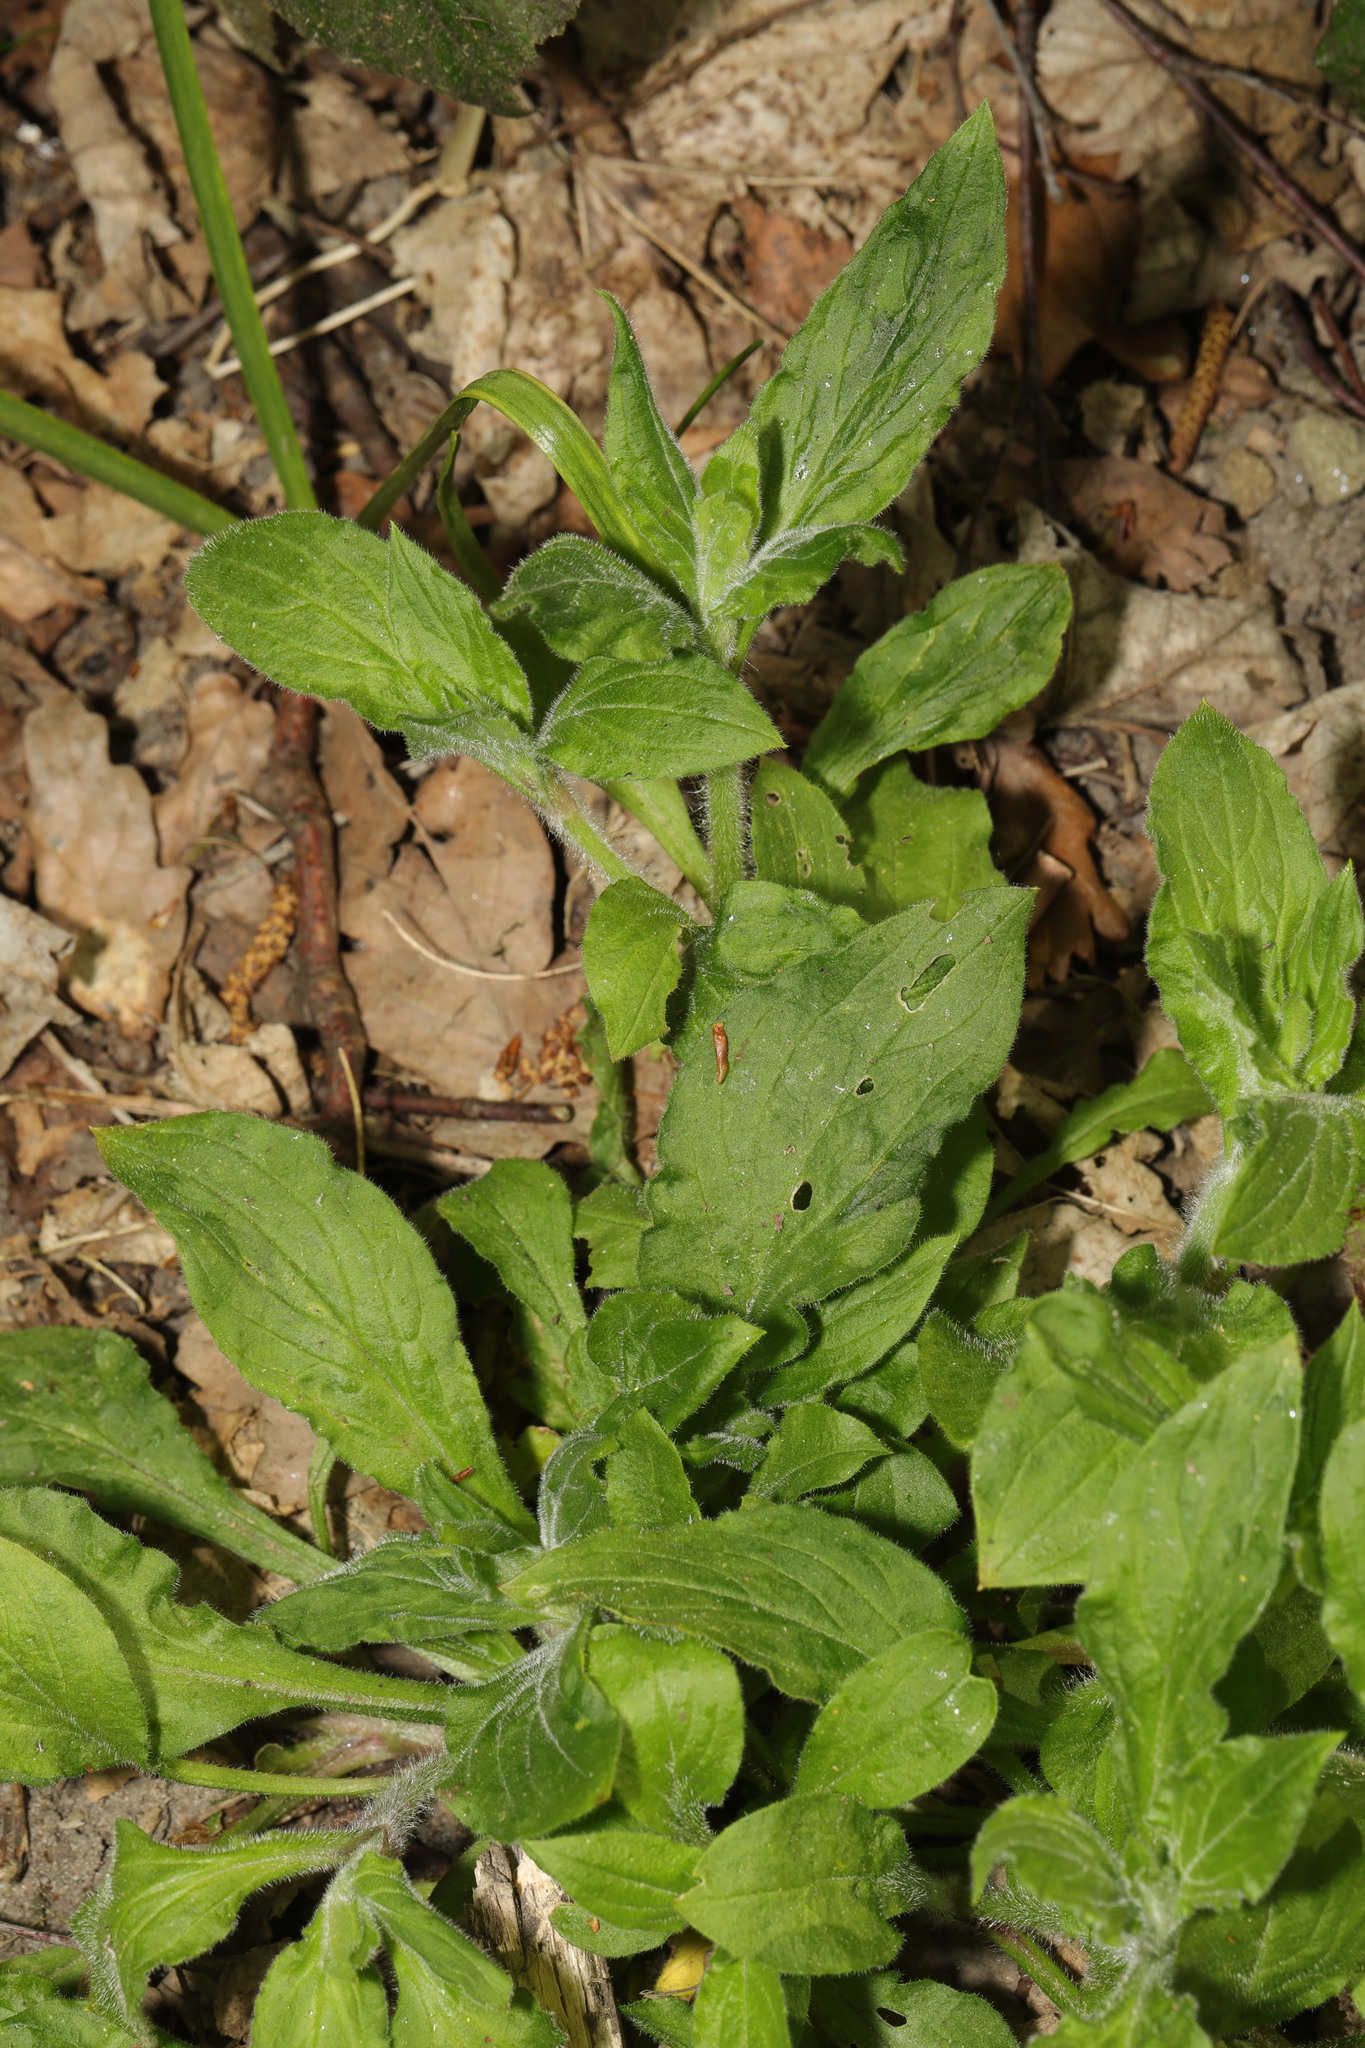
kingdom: Plantae
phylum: Tracheophyta
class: Magnoliopsida
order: Caryophyllales
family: Caryophyllaceae
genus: Silene
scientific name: Silene dioica
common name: Red campion
